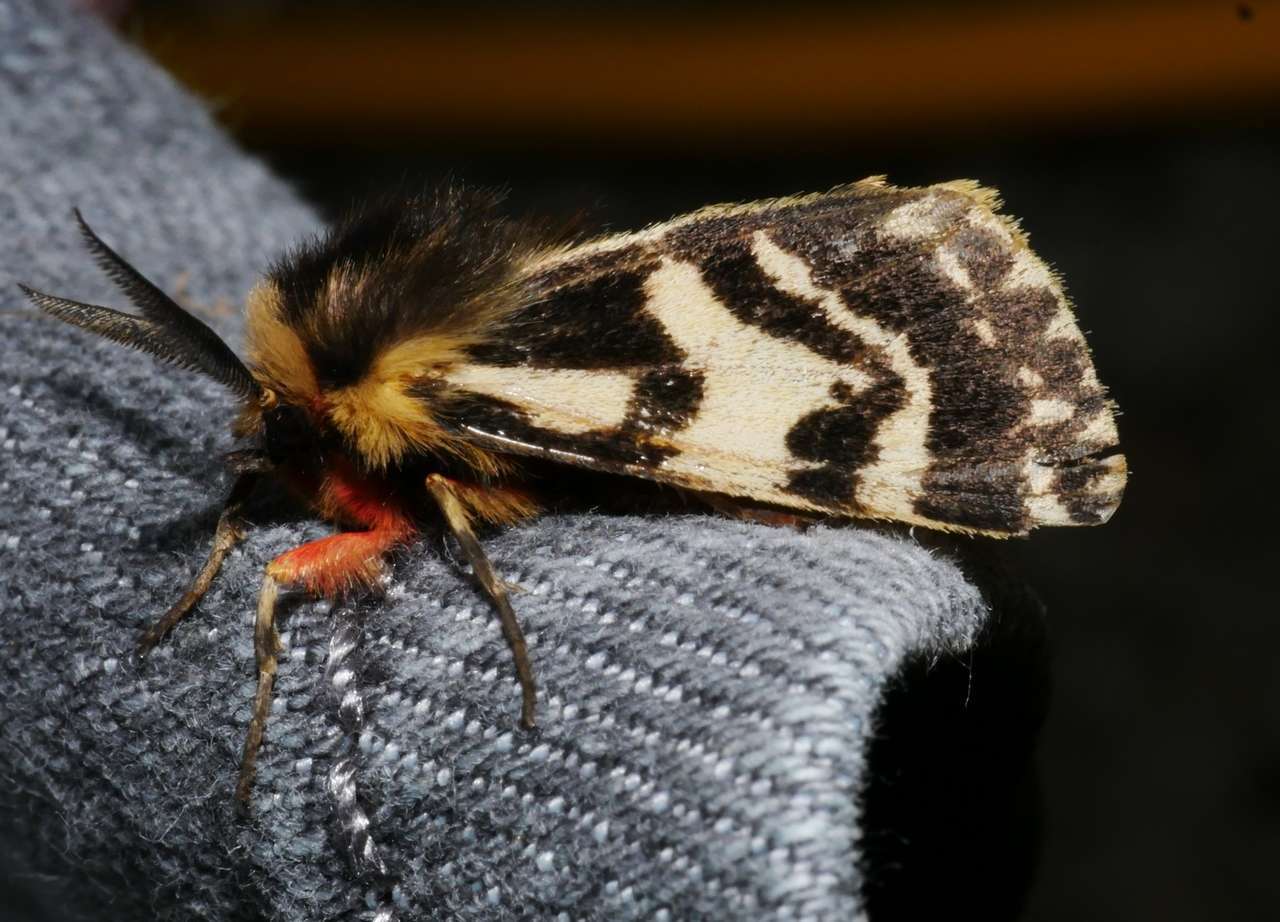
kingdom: Animalia
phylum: Arthropoda
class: Insecta
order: Lepidoptera
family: Erebidae
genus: Ardices
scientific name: Ardices curvata
